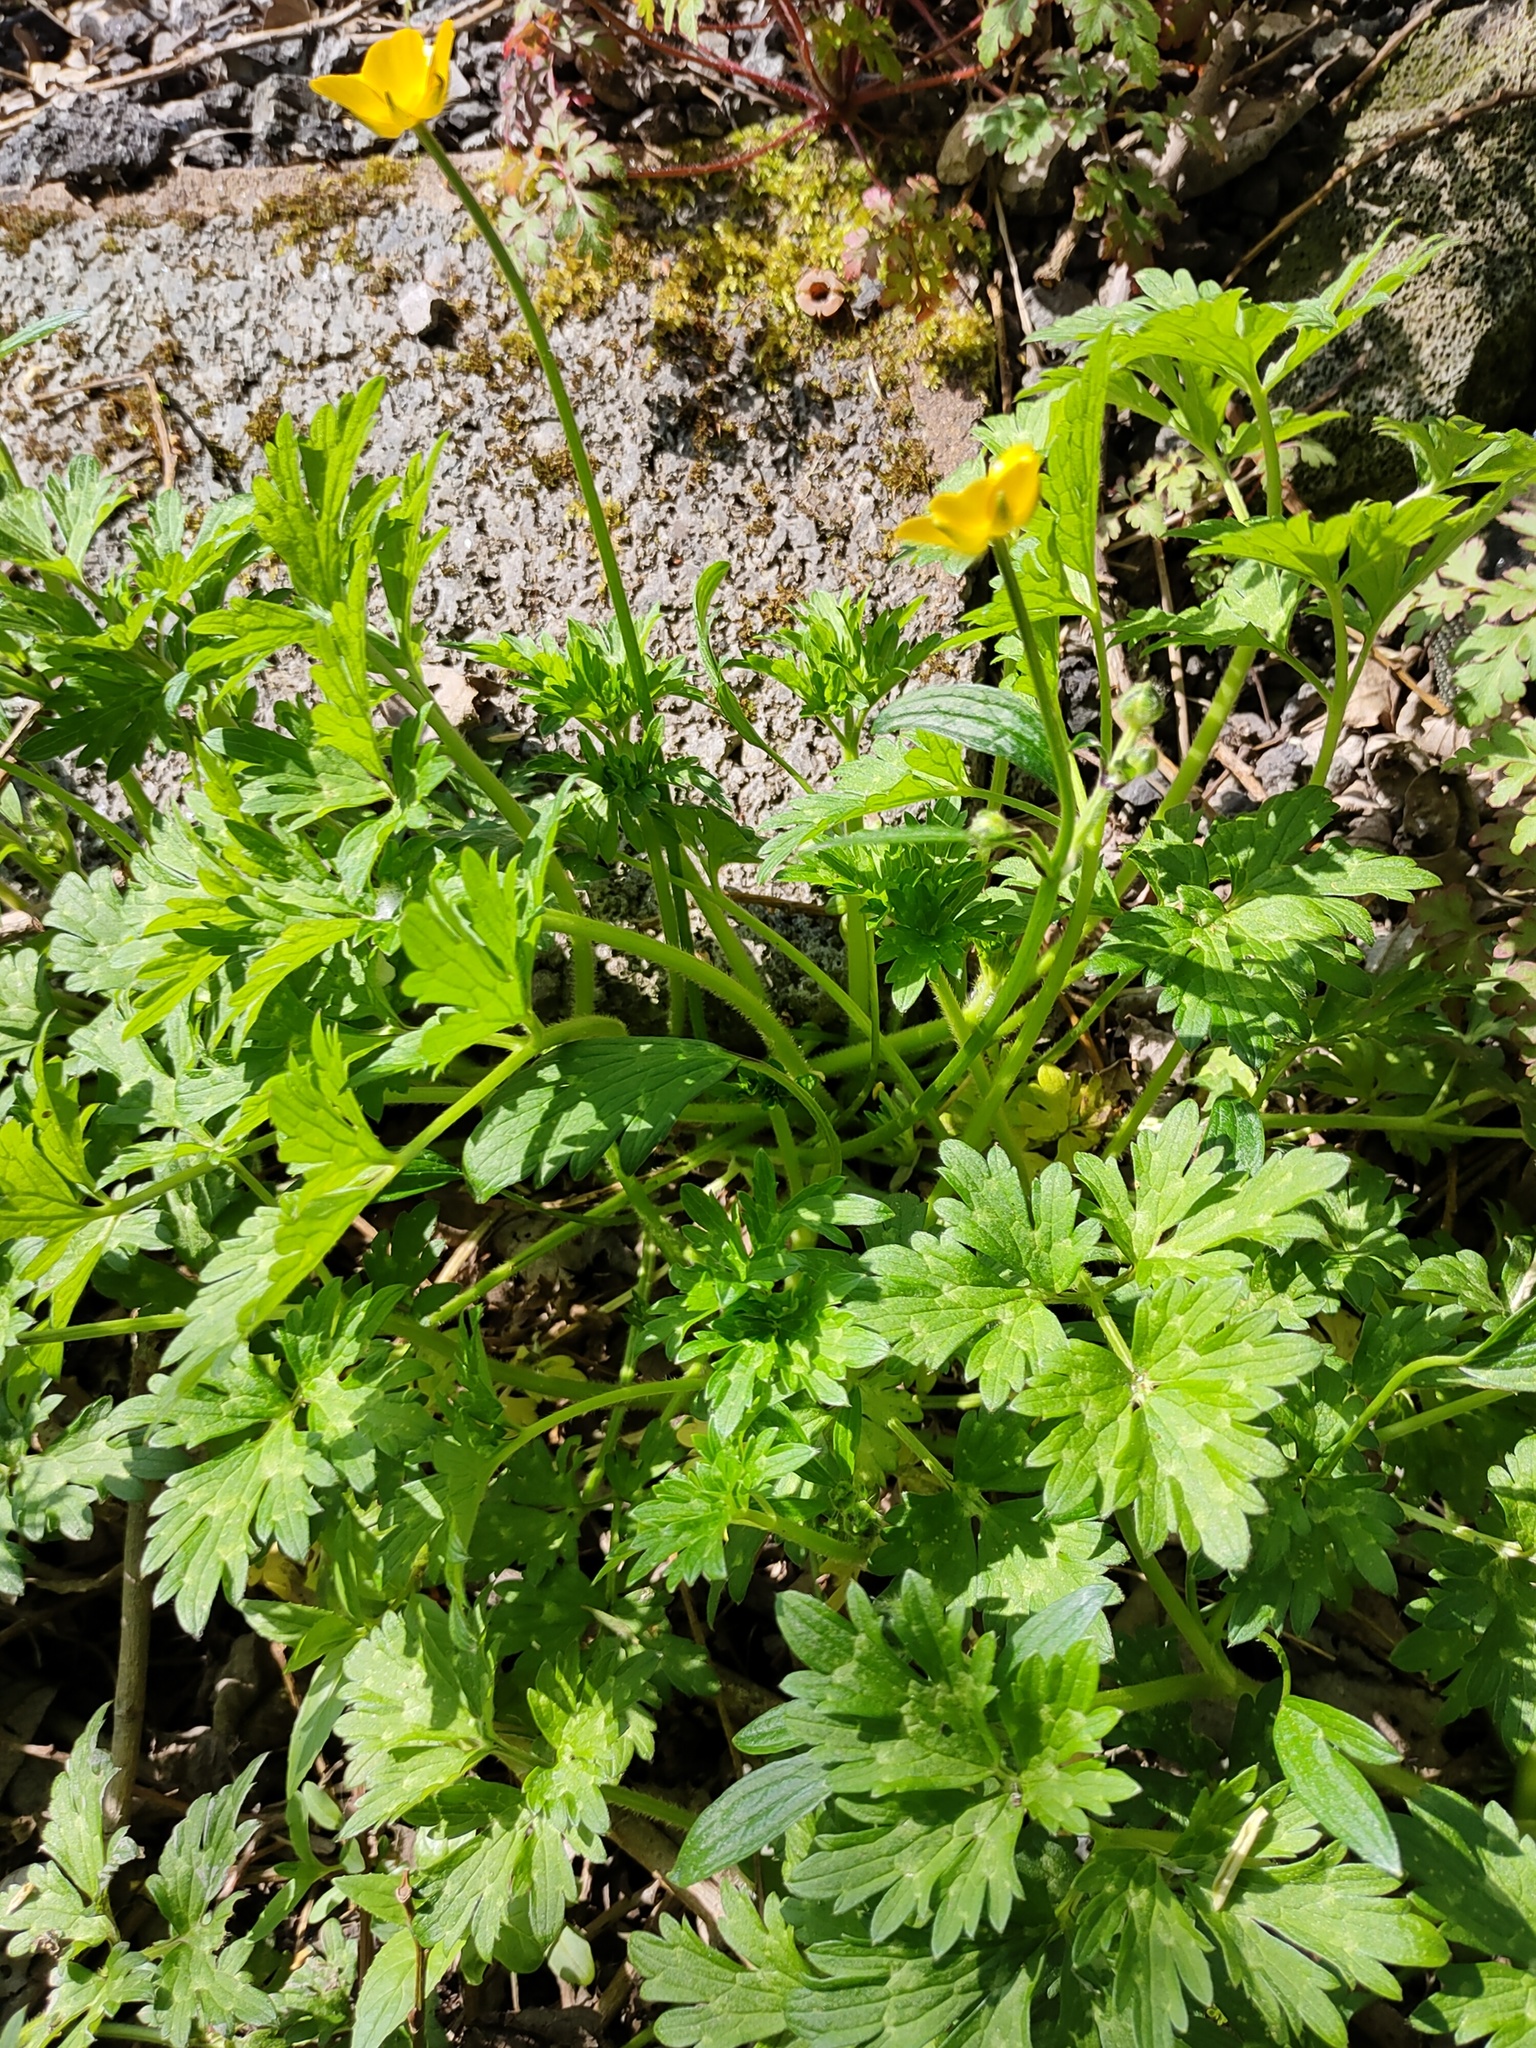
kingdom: Plantae
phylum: Tracheophyta
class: Magnoliopsida
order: Ranunculales
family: Ranunculaceae
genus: Ranunculus
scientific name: Ranunculus repens
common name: Creeping buttercup
